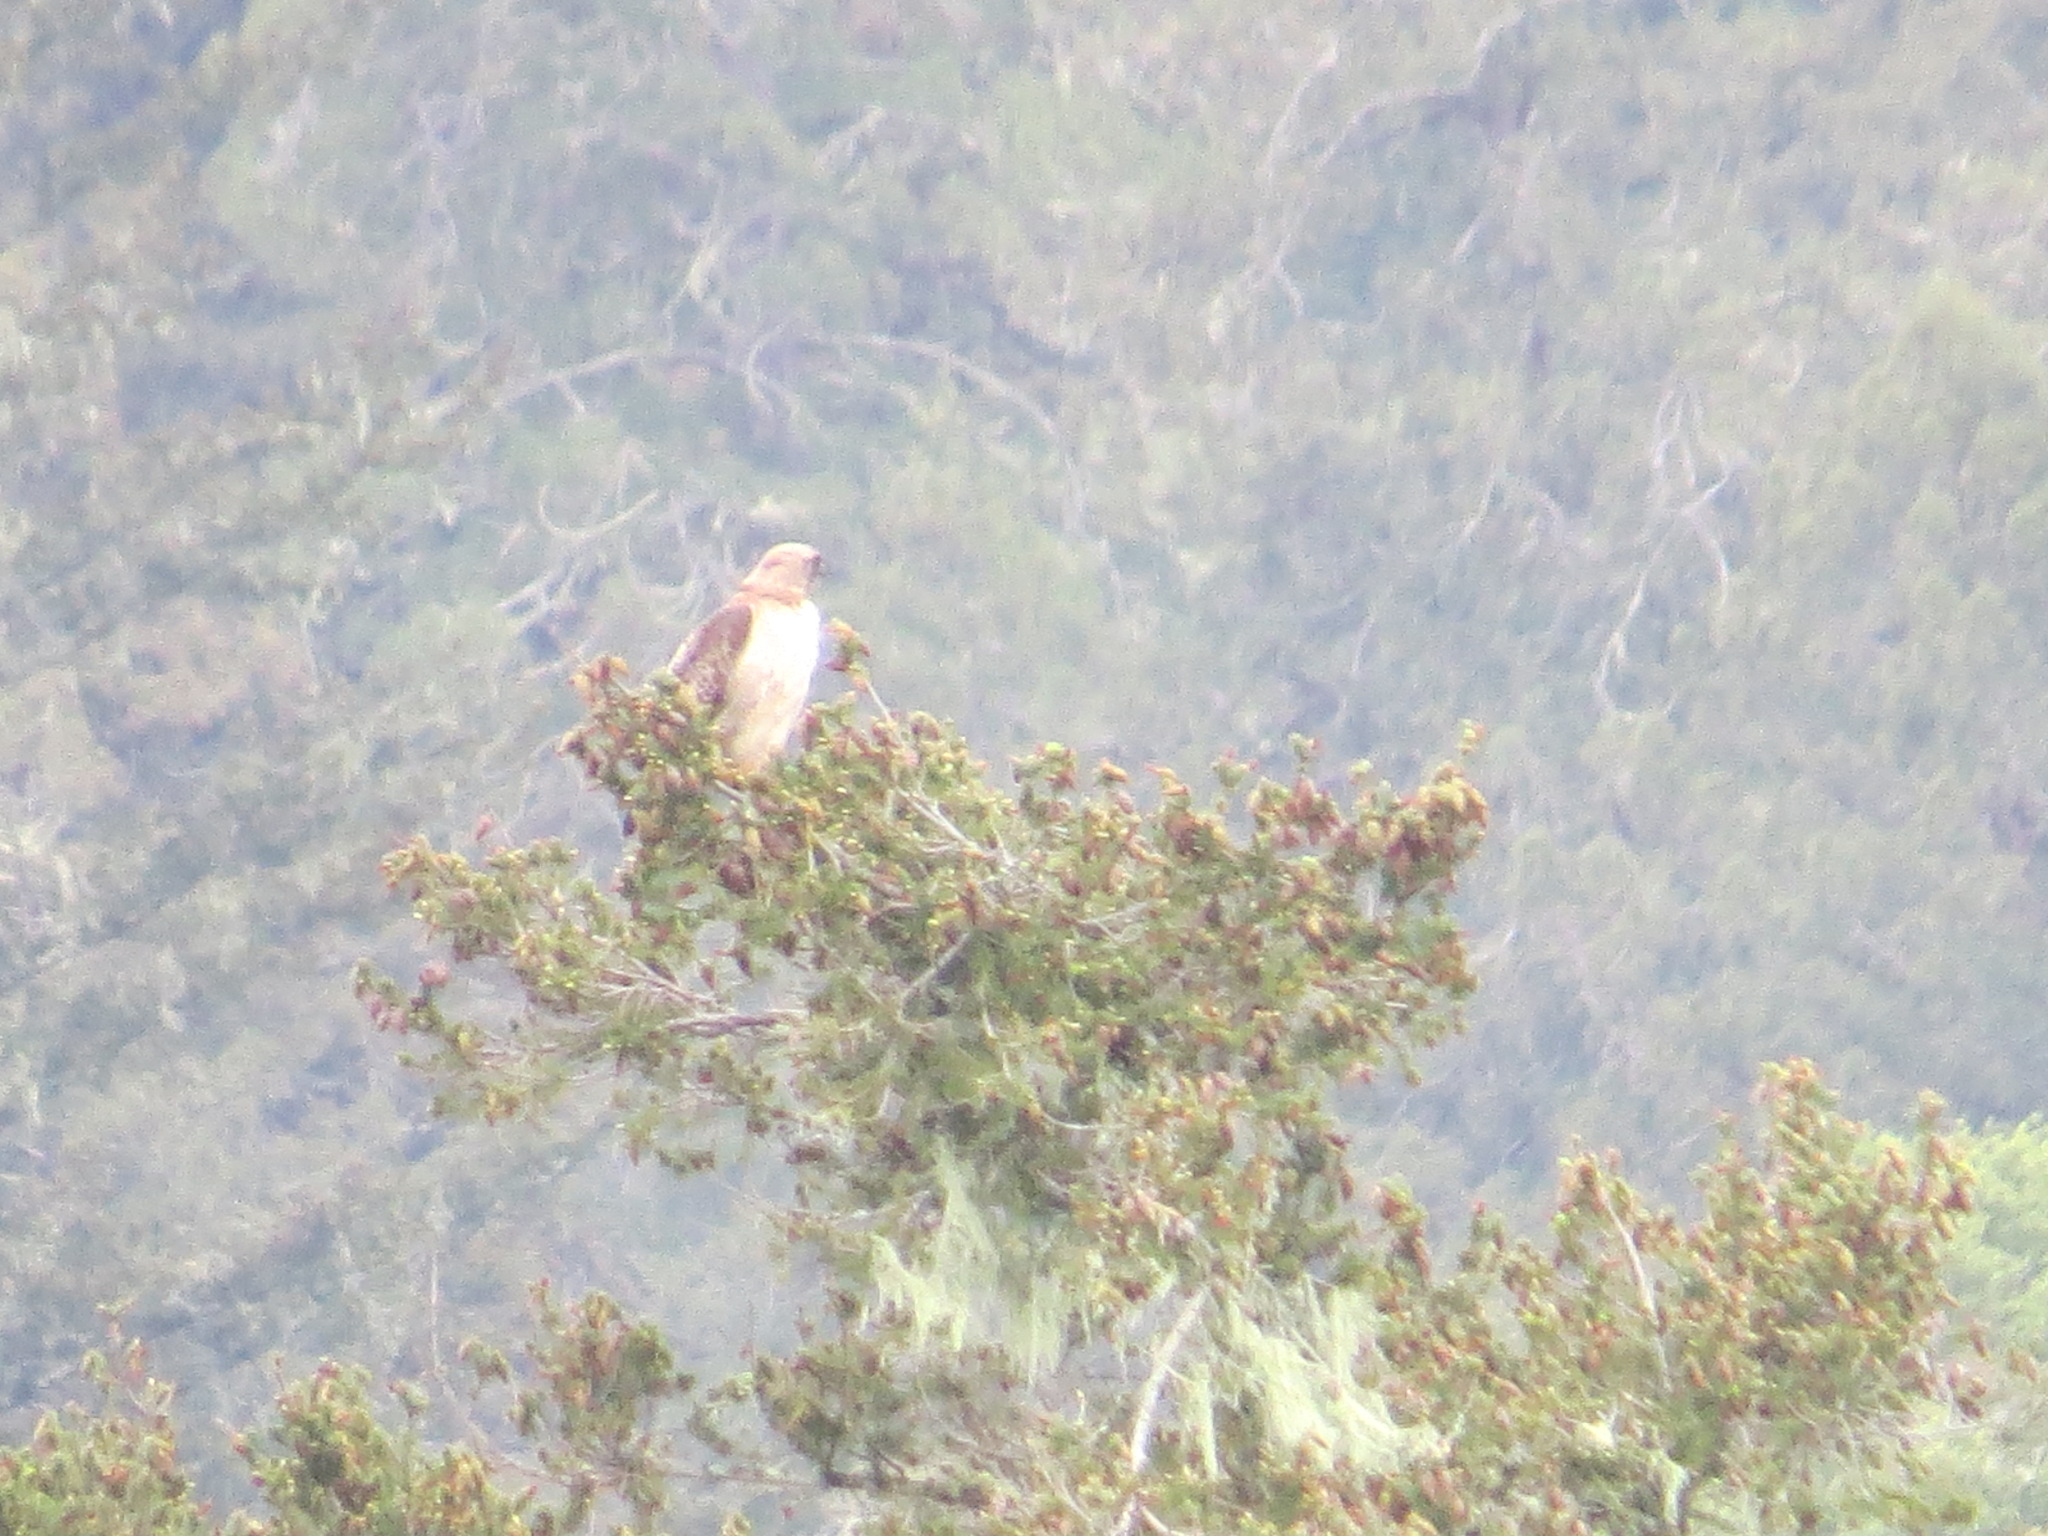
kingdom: Animalia
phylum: Chordata
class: Aves
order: Accipitriformes
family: Accipitridae
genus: Buteo
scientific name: Buteo jamaicensis
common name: Red-tailed hawk
